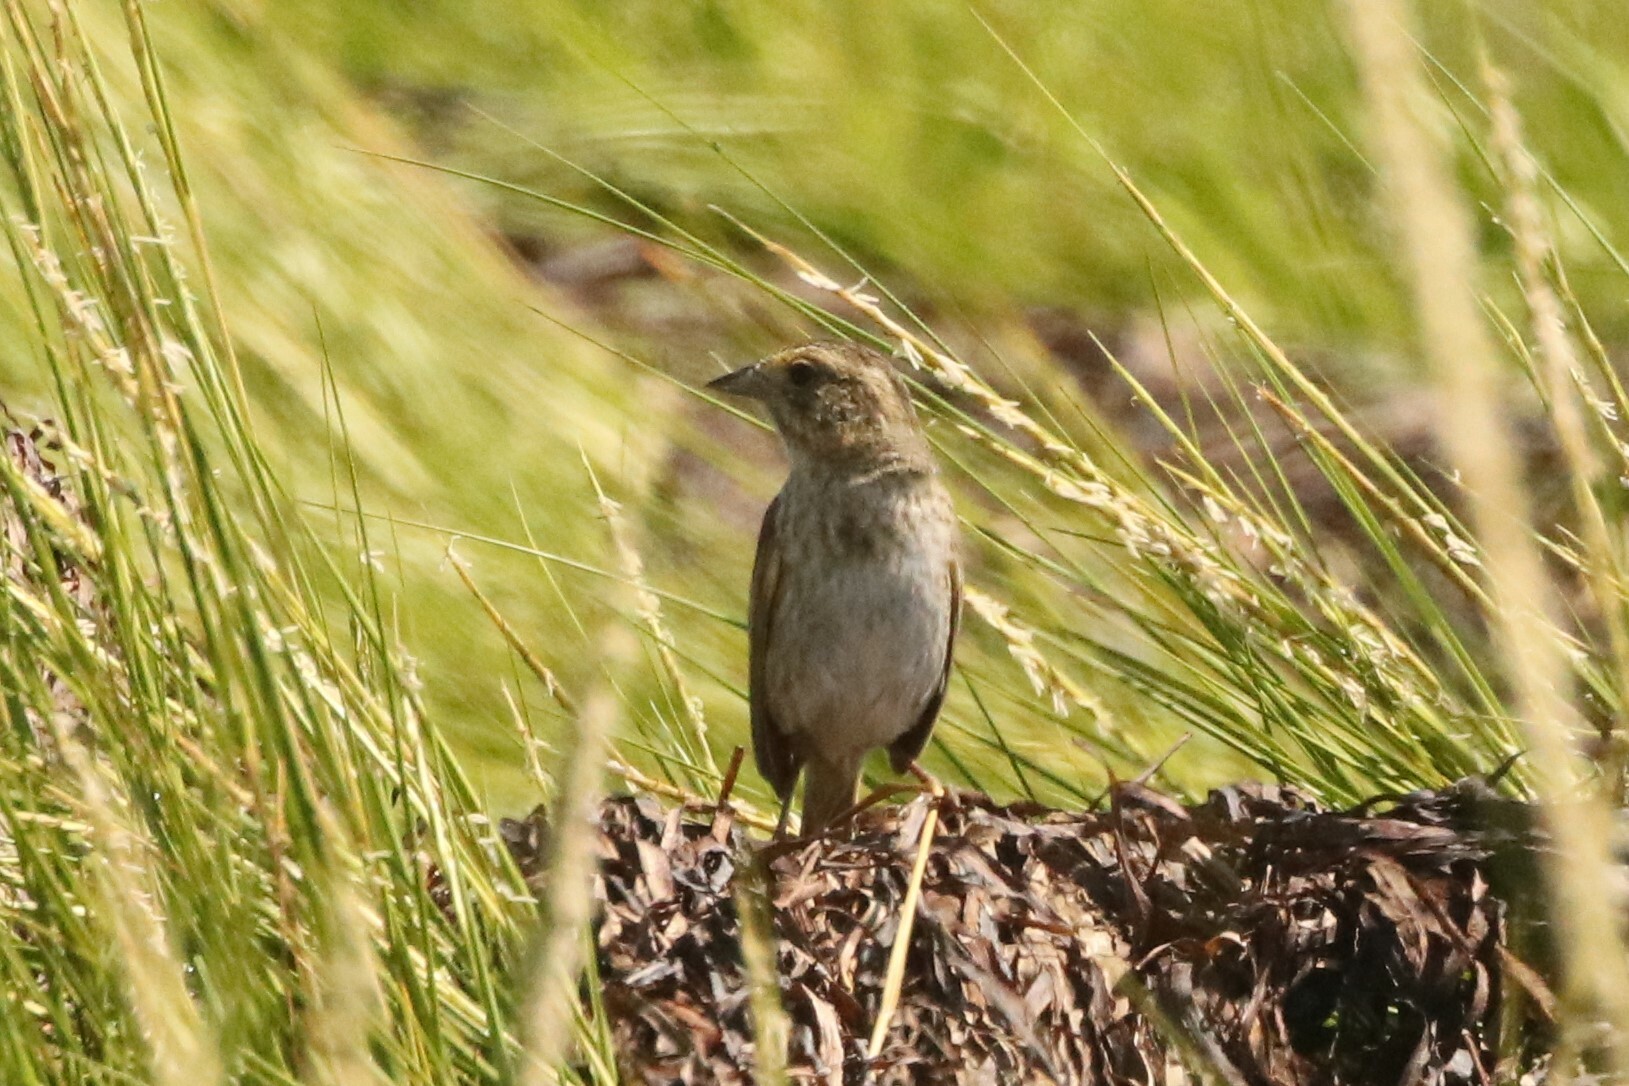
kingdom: Animalia
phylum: Chordata
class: Aves
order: Passeriformes
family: Passerellidae
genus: Ammospiza
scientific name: Ammospiza nelsoni
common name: Nelson's sparrow
